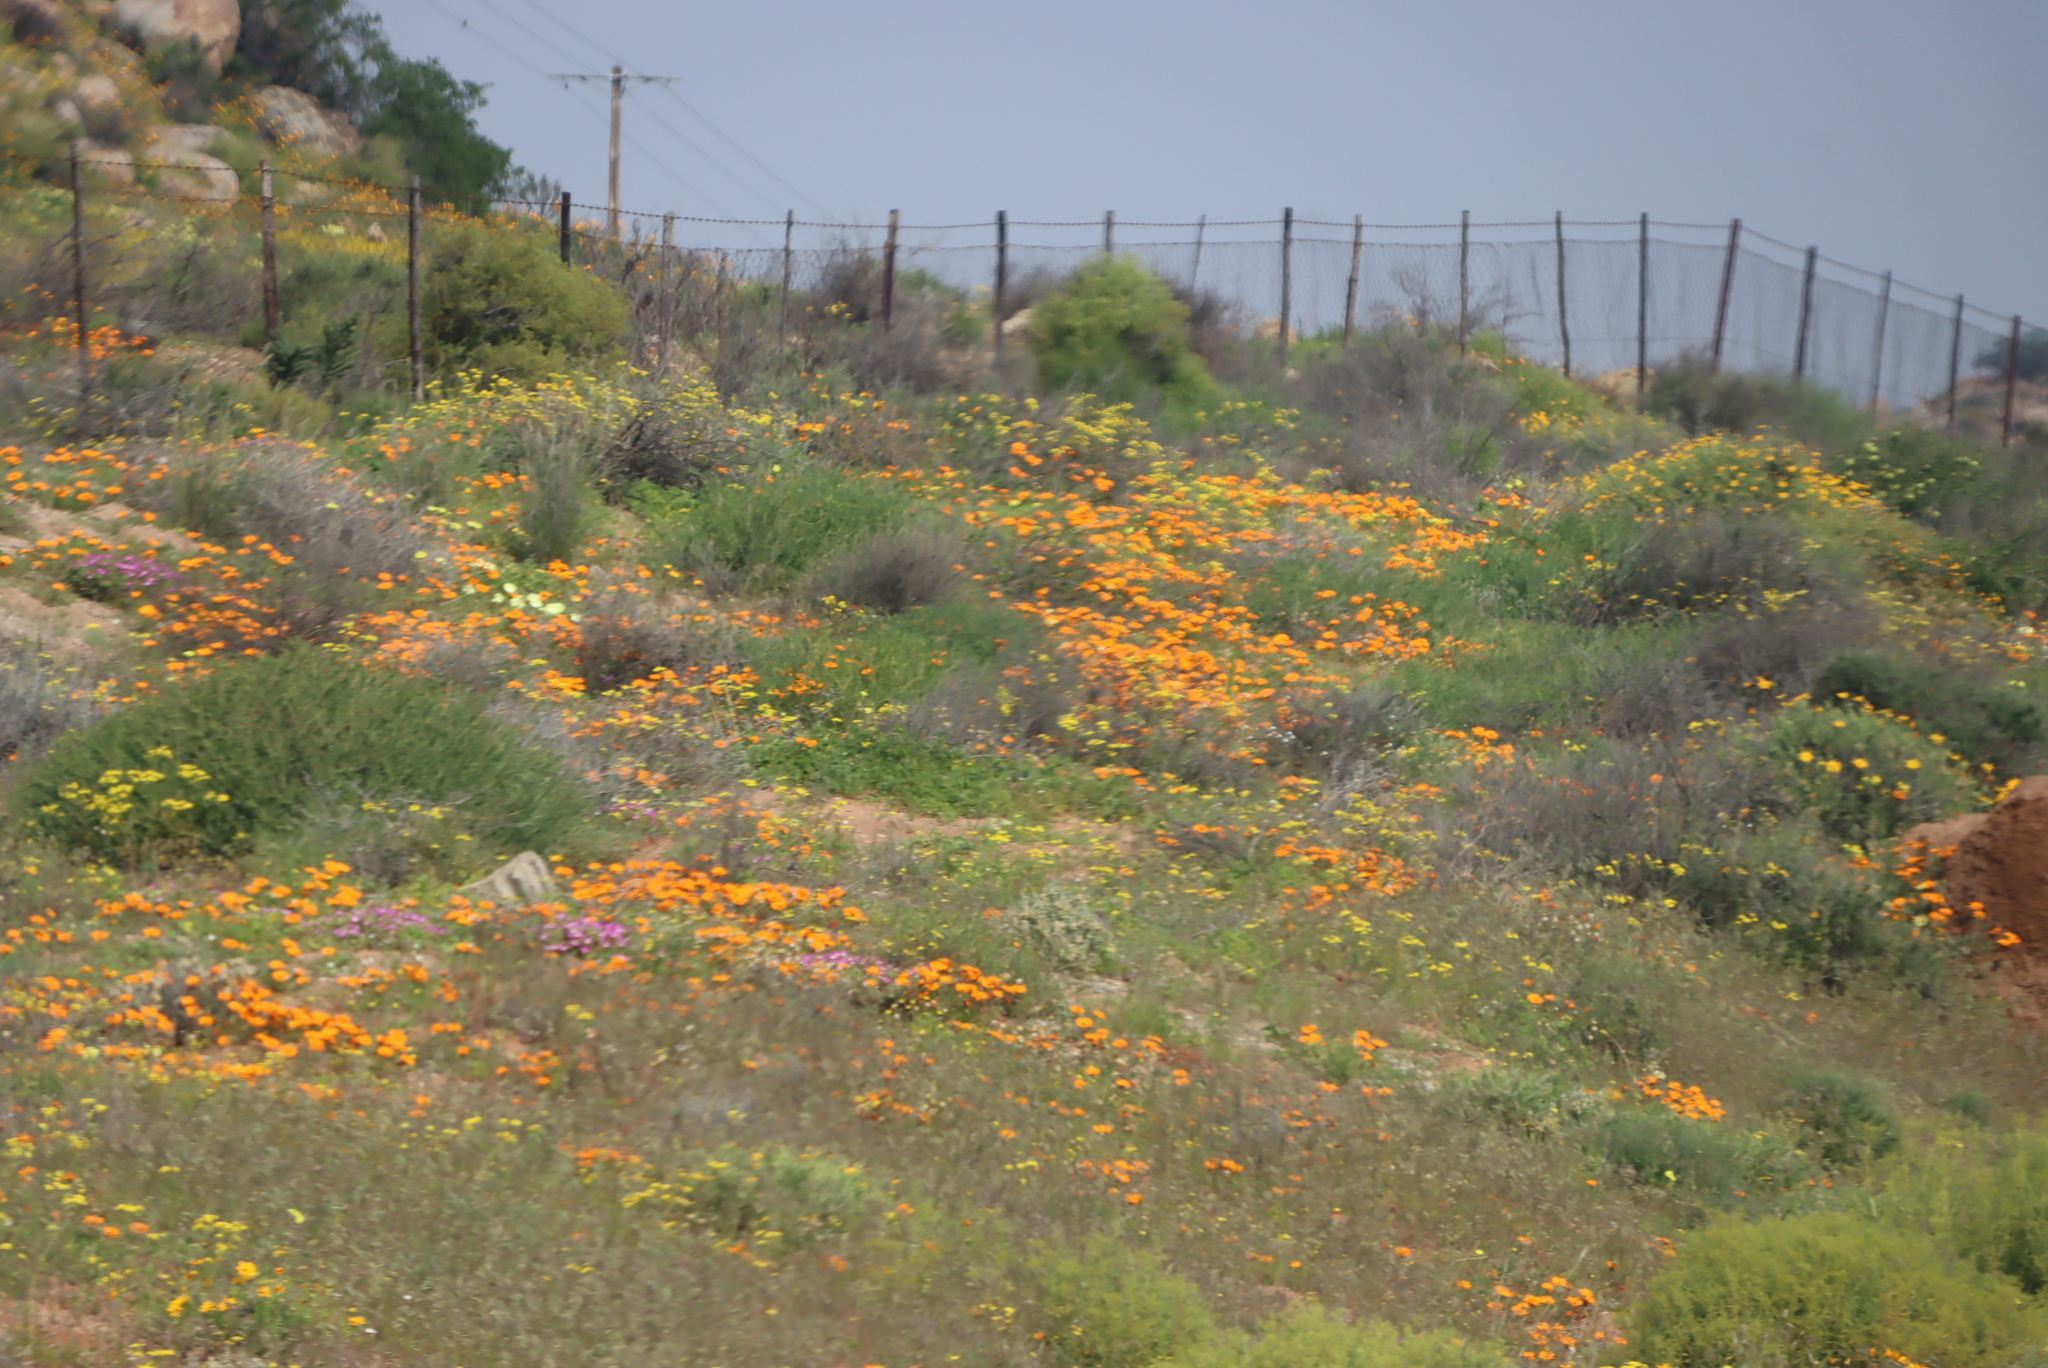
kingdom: Plantae
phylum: Tracheophyta
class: Magnoliopsida
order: Asterales
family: Asteraceae
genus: Dimorphotheca
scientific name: Dimorphotheca sinuata
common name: Glandular cape marigold
